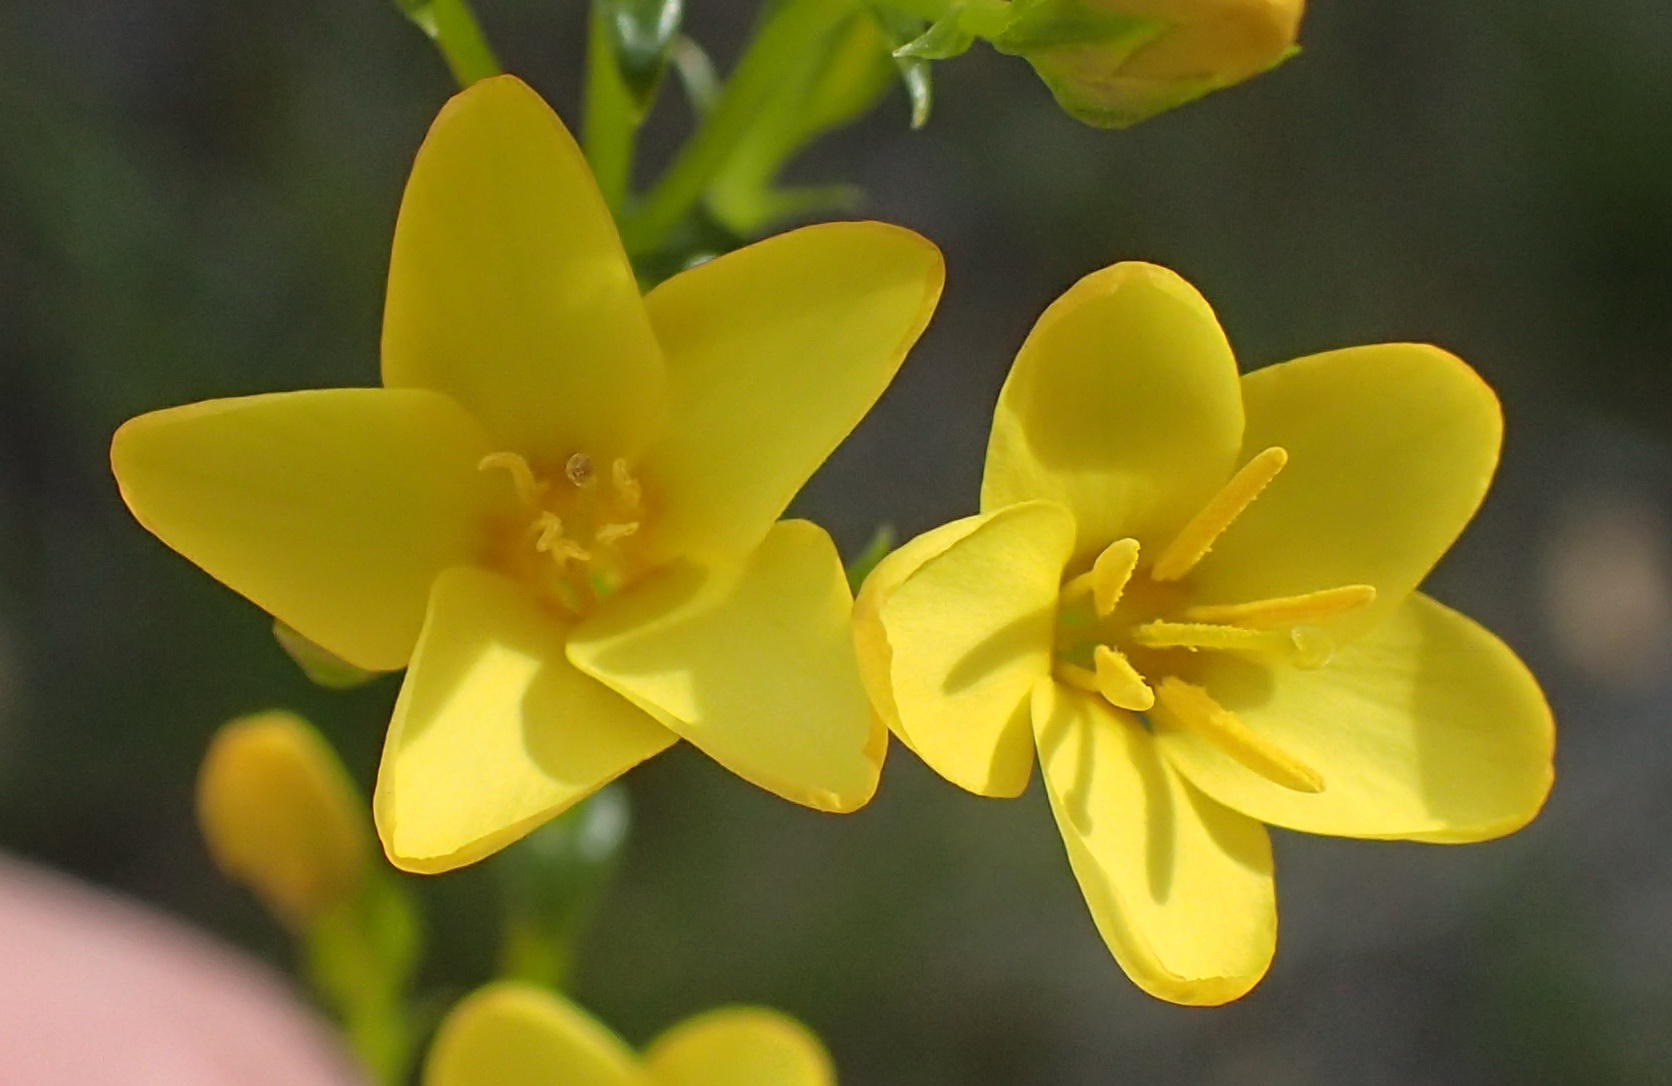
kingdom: Plantae
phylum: Tracheophyta
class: Magnoliopsida
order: Gentianales
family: Gentianaceae
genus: Sebaea
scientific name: Sebaea stricta
